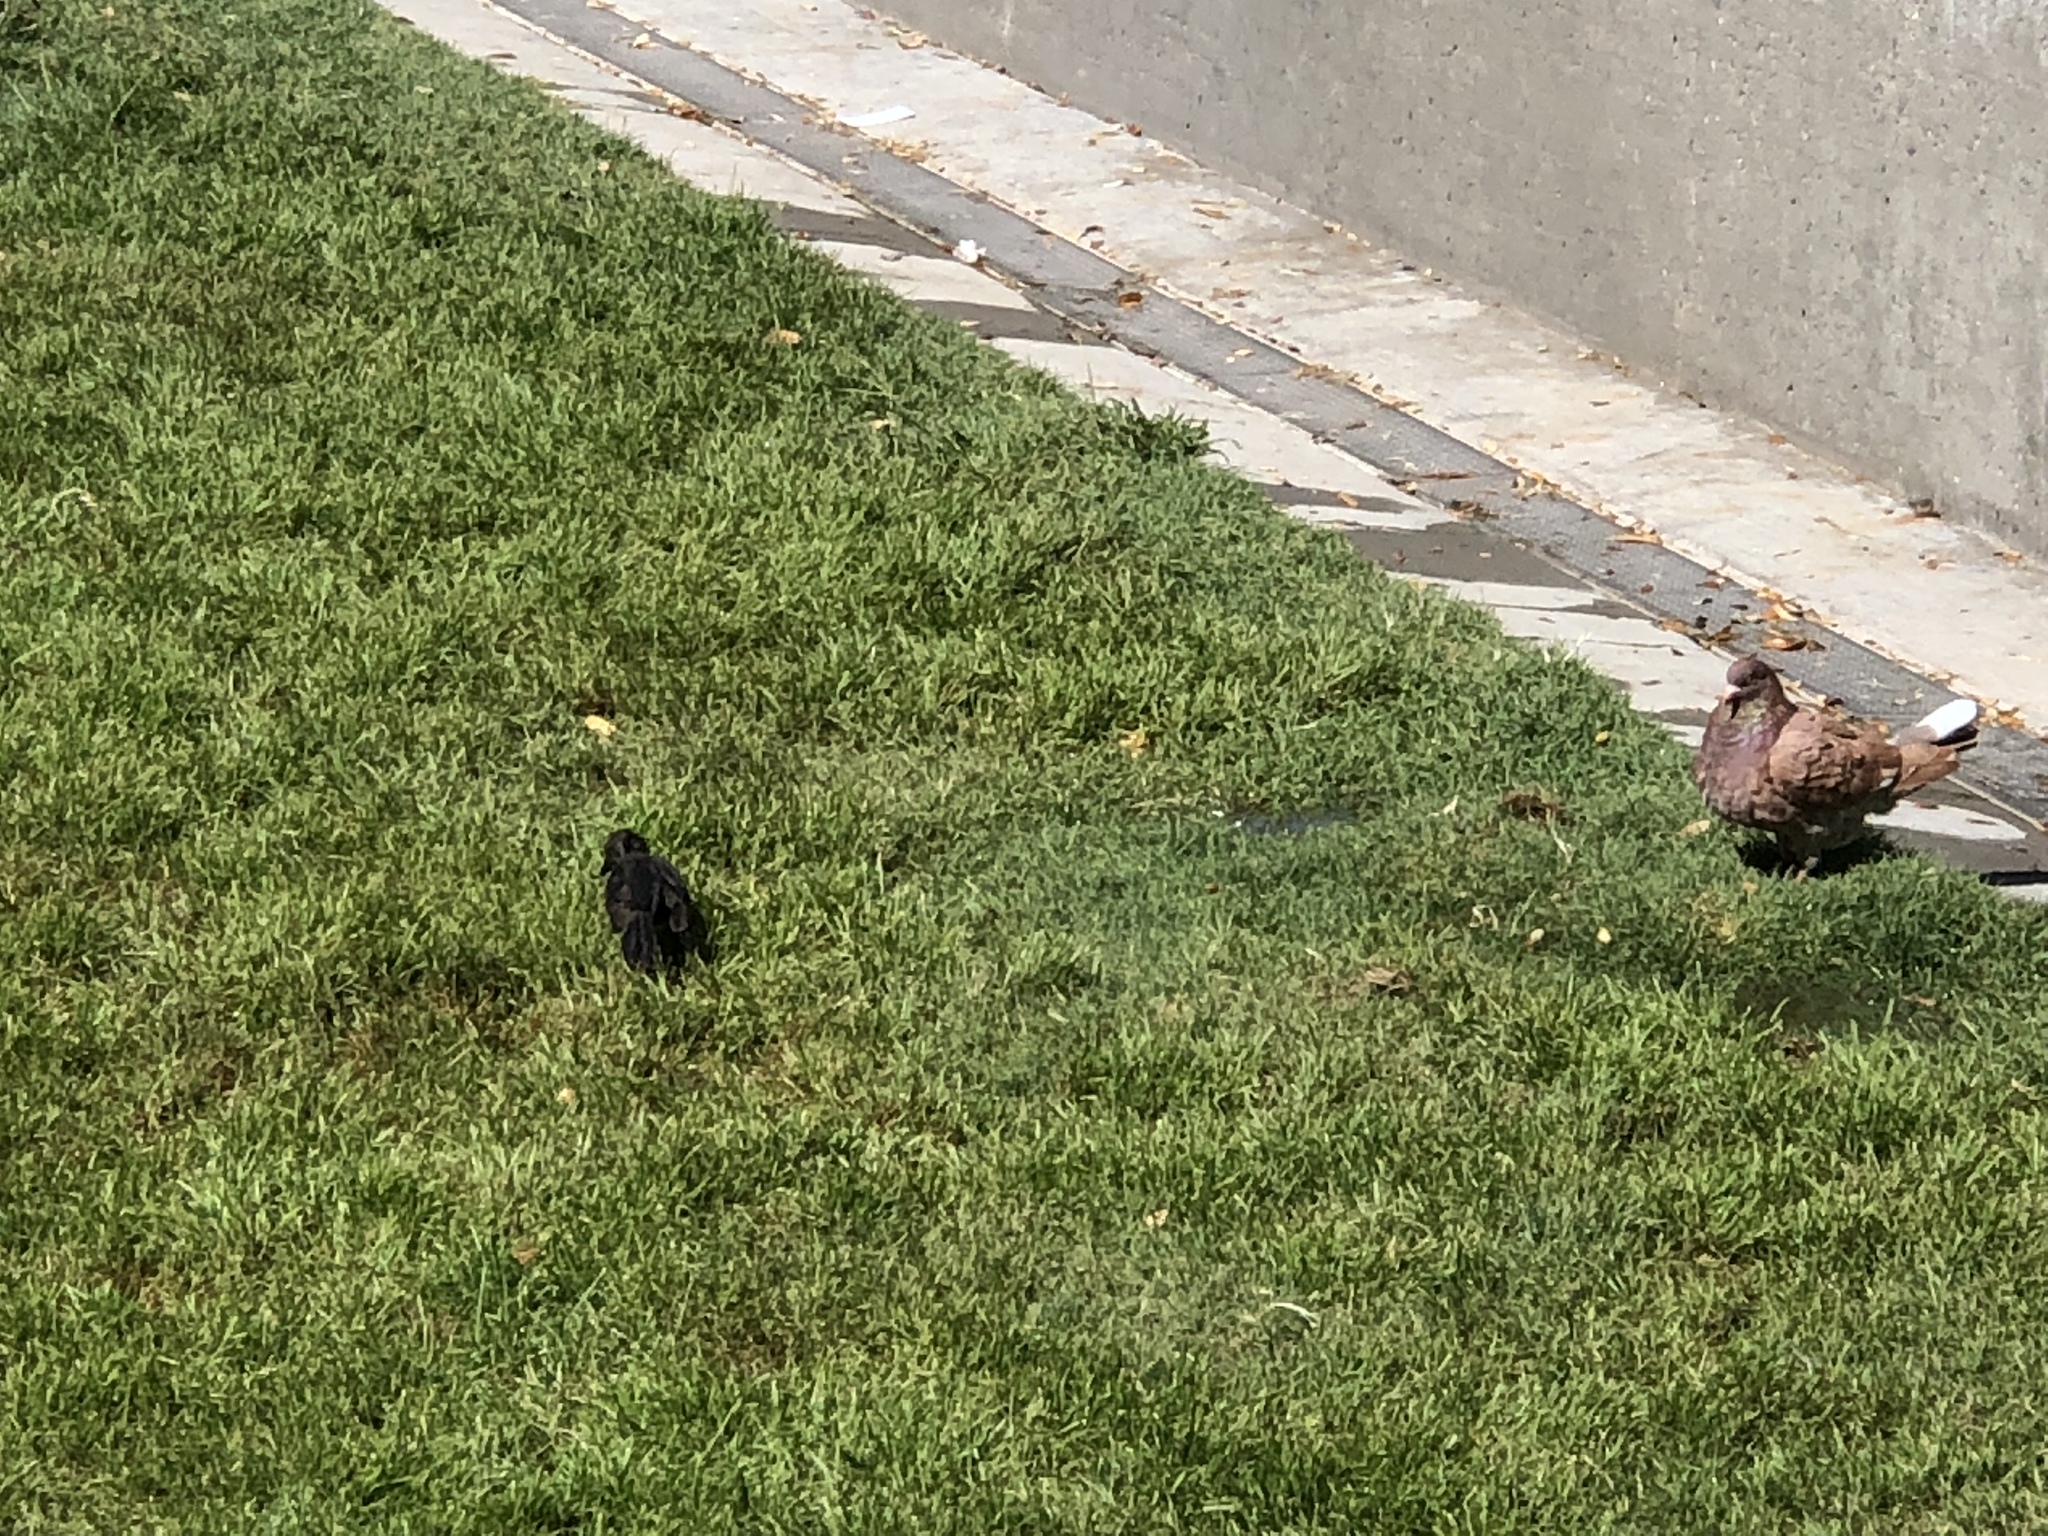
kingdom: Animalia
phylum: Chordata
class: Aves
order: Passeriformes
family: Icteridae
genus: Quiscalus
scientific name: Quiscalus mexicanus
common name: Great-tailed grackle
